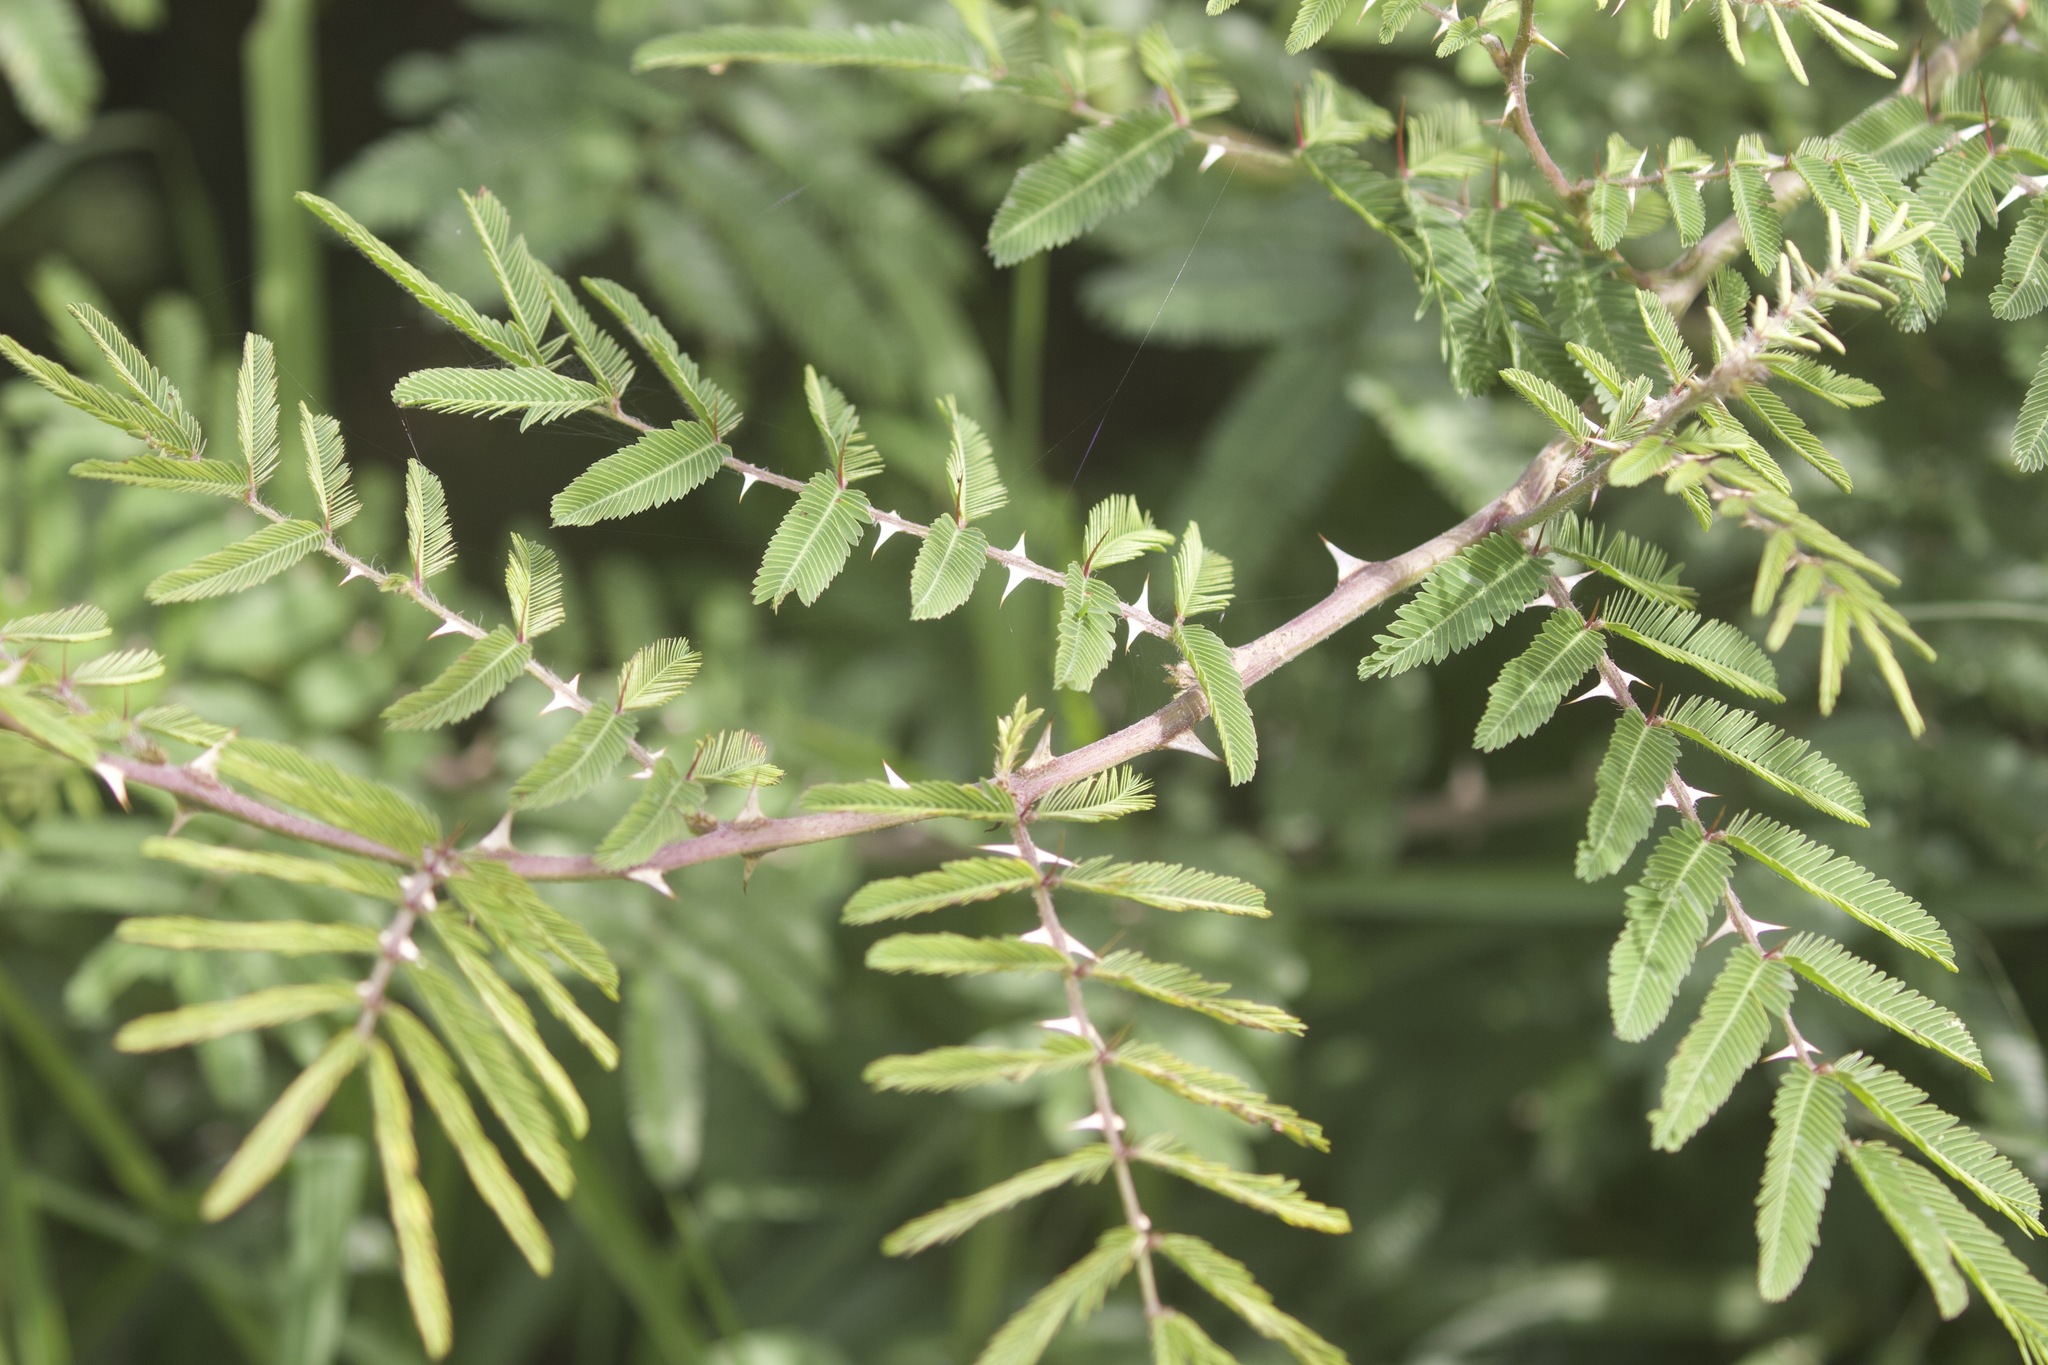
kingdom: Plantae
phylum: Tracheophyta
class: Magnoliopsida
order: Fabales
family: Fabaceae
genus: Mimosa
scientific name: Mimosa pigra
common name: Black mimosa
